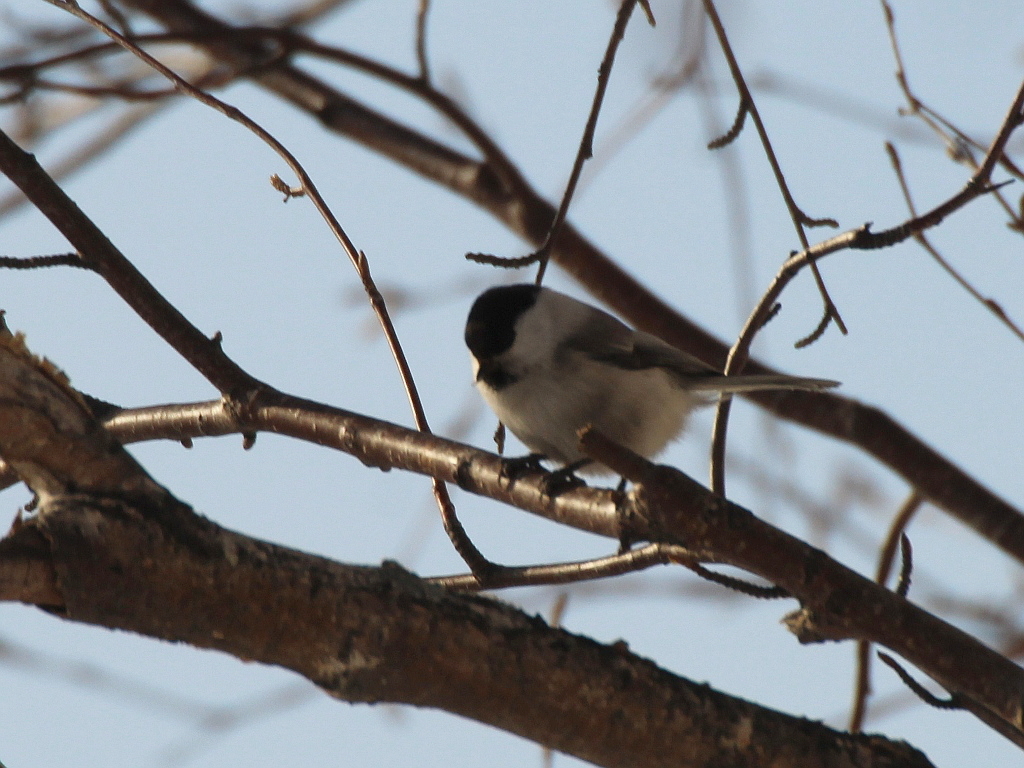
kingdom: Animalia
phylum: Chordata
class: Aves
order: Passeriformes
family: Paridae
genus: Poecile
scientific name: Poecile montanus
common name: Willow tit
